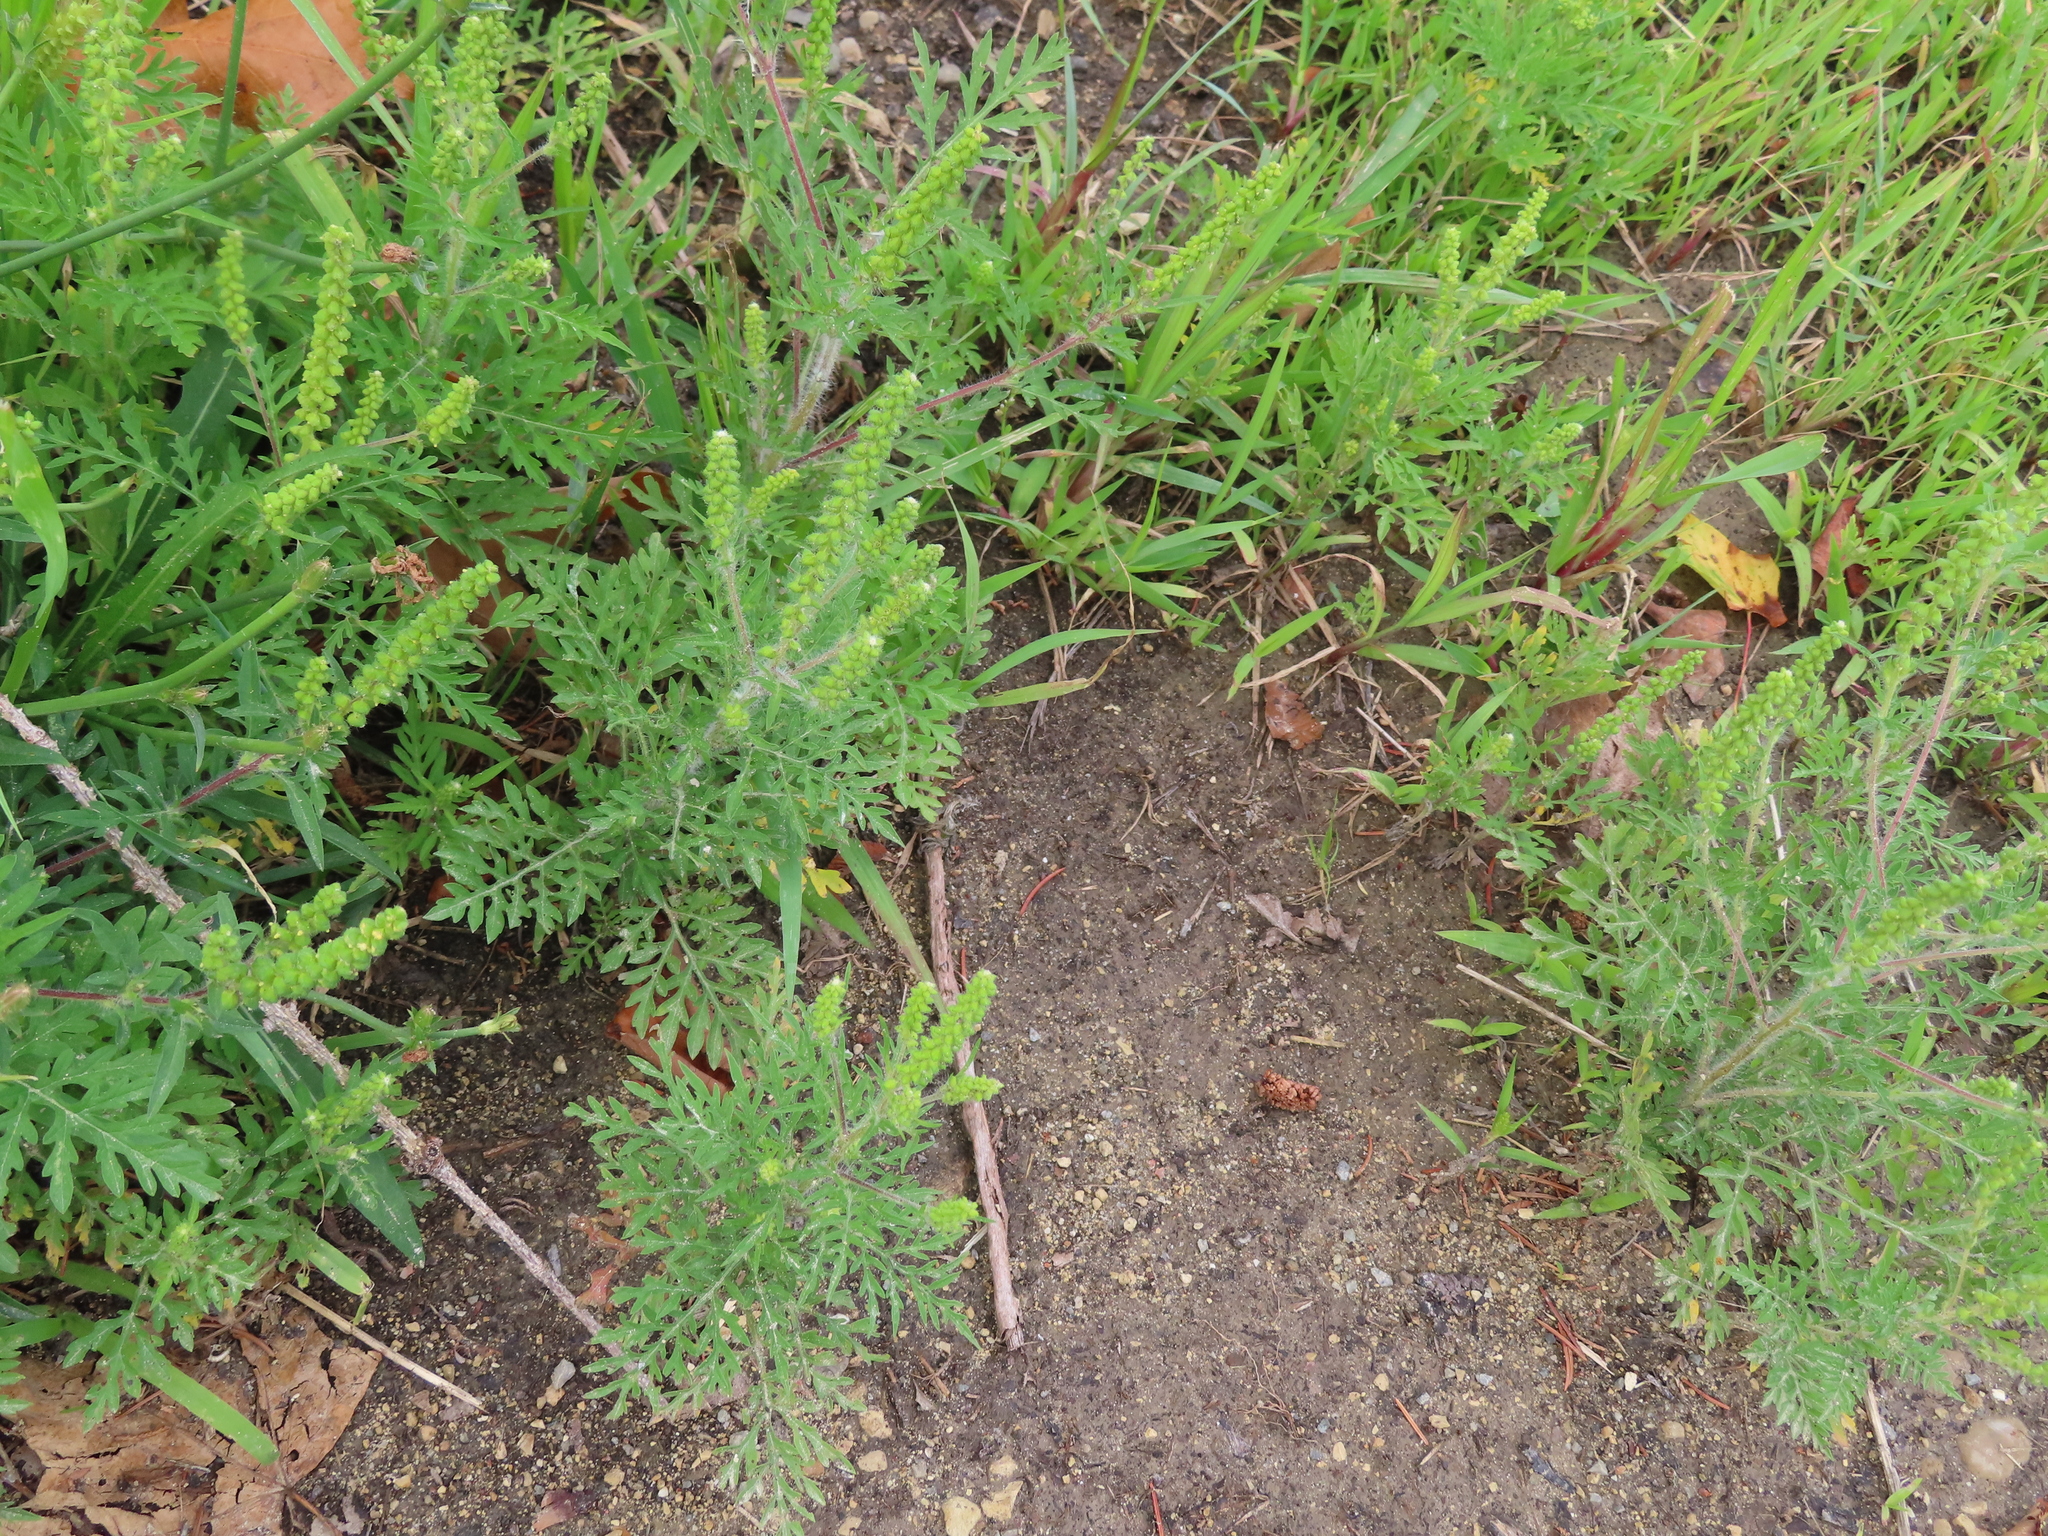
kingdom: Plantae
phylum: Tracheophyta
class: Magnoliopsida
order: Asterales
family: Asteraceae
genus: Ambrosia
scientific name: Ambrosia artemisiifolia
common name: Annual ragweed
